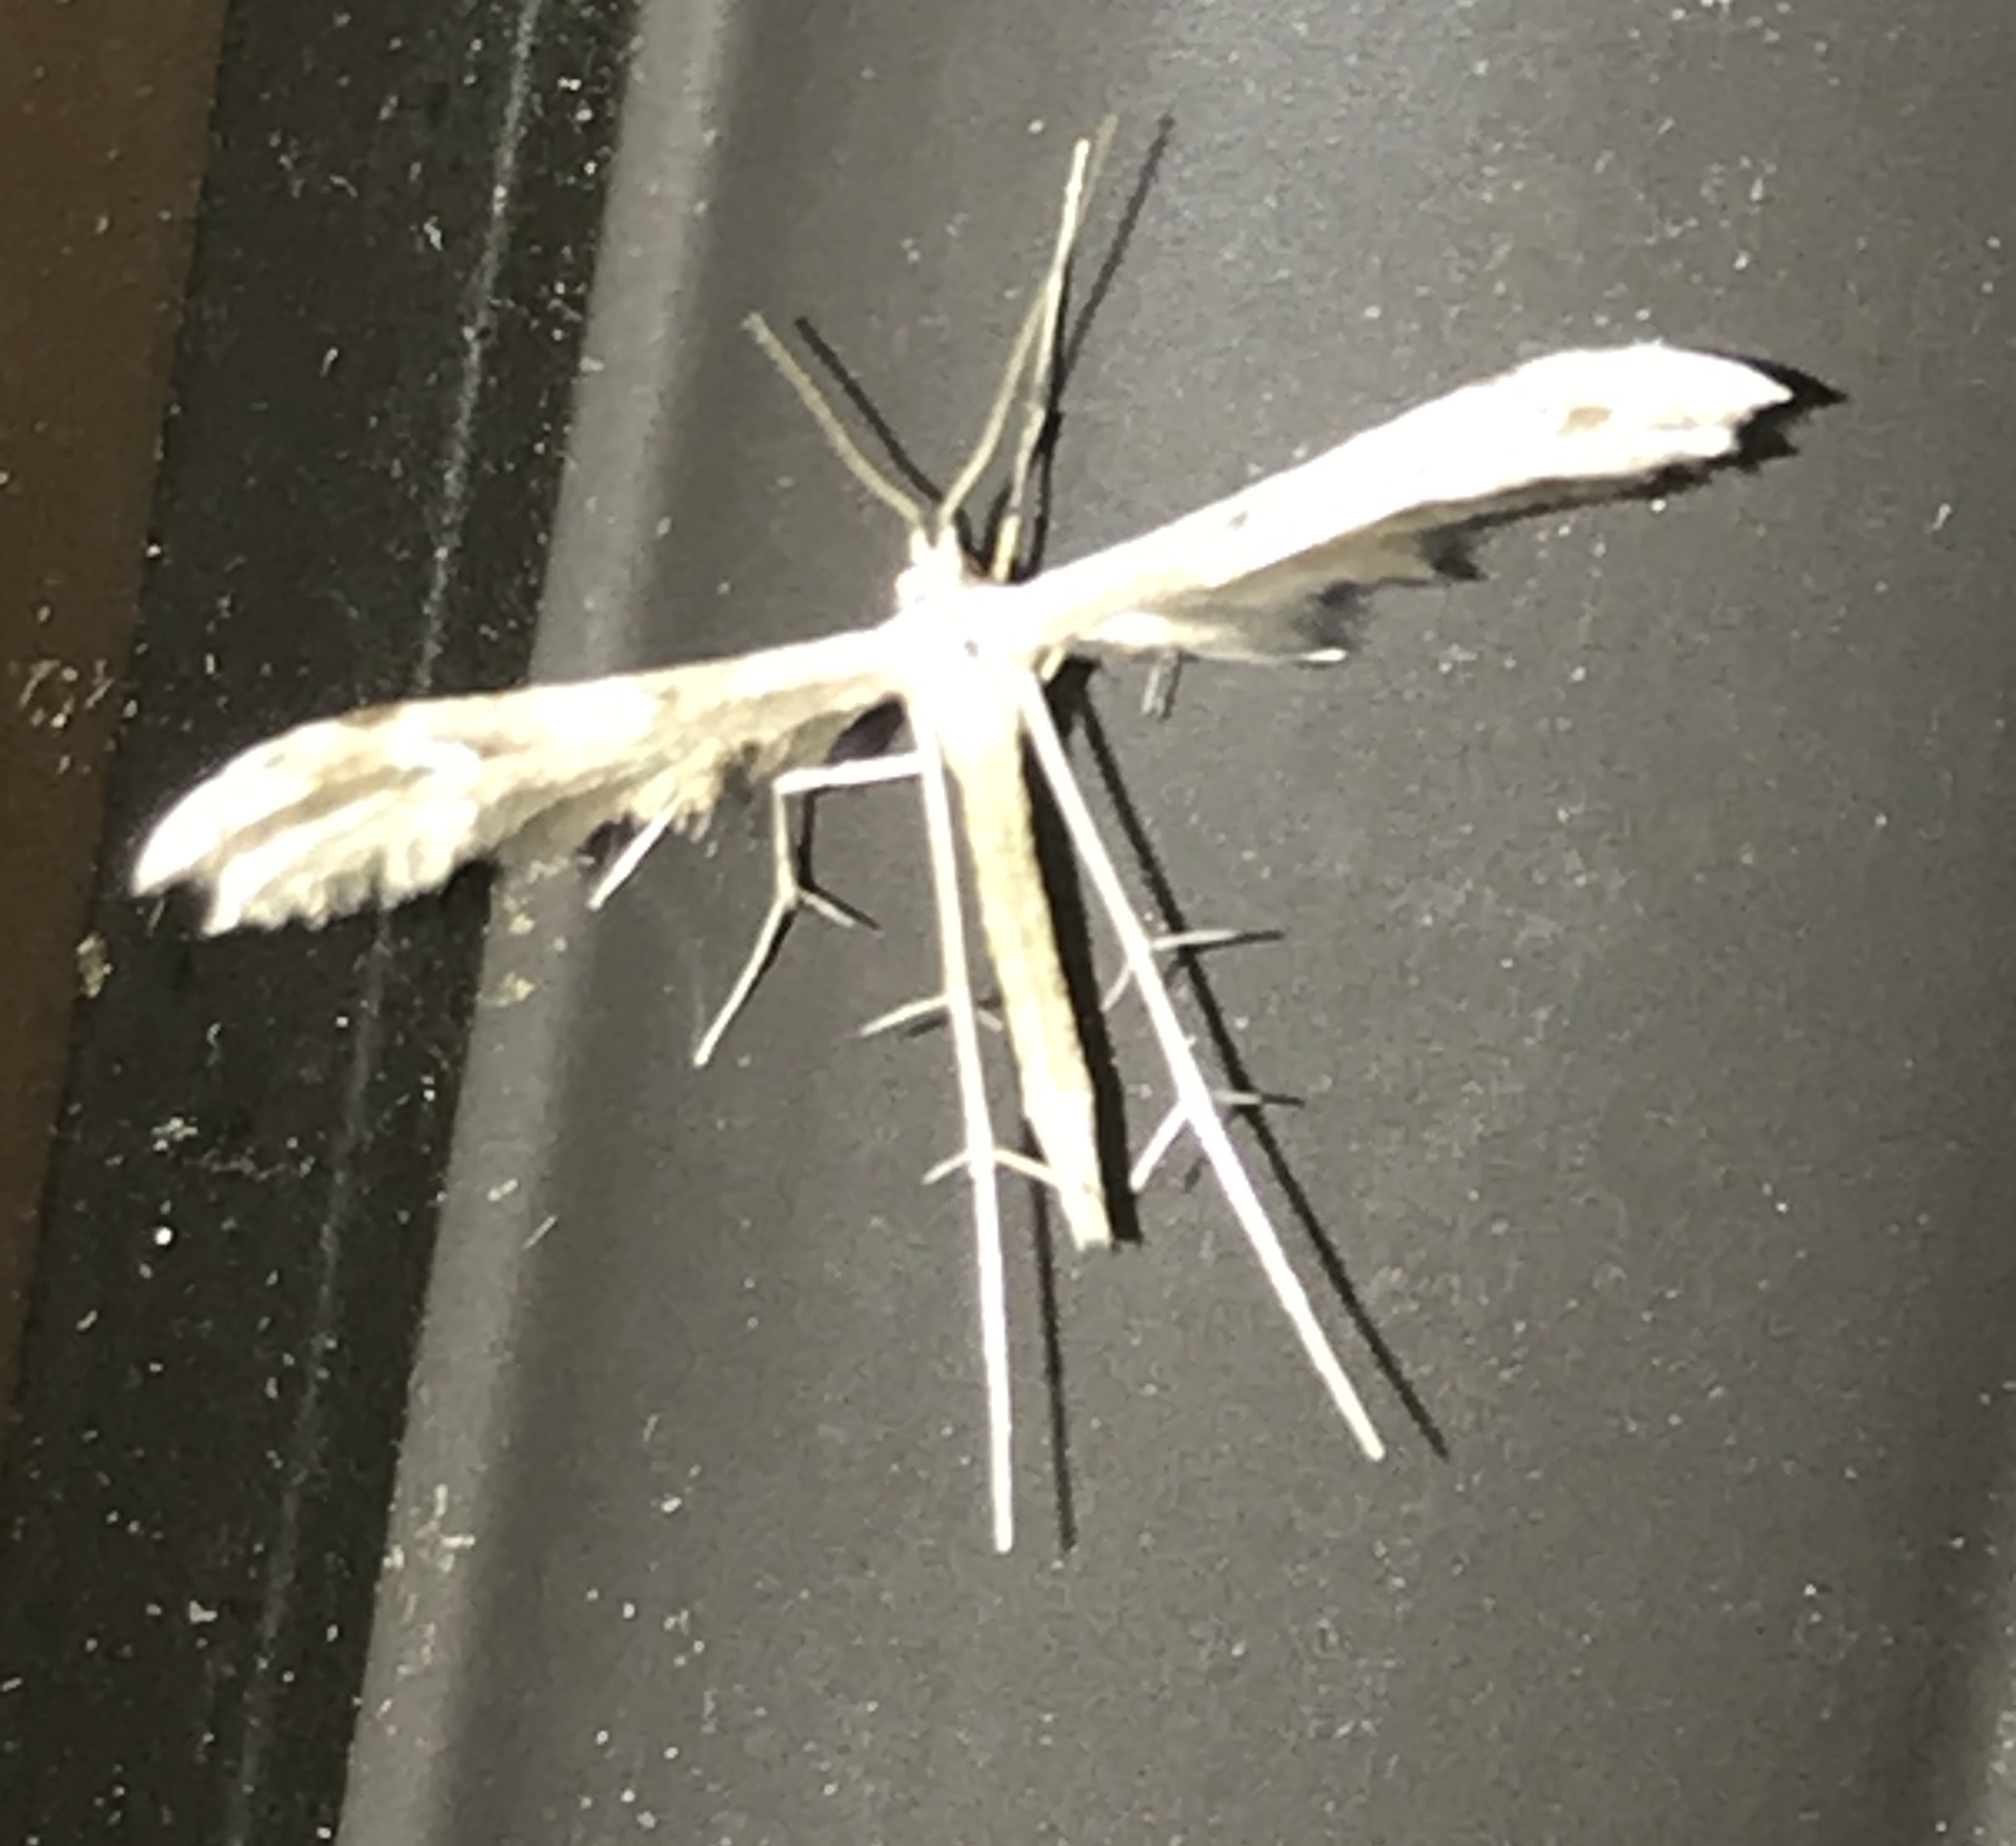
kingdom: Animalia
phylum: Arthropoda
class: Insecta
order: Lepidoptera
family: Pterophoridae
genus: Pselnophorus
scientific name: Pselnophorus belfragei
